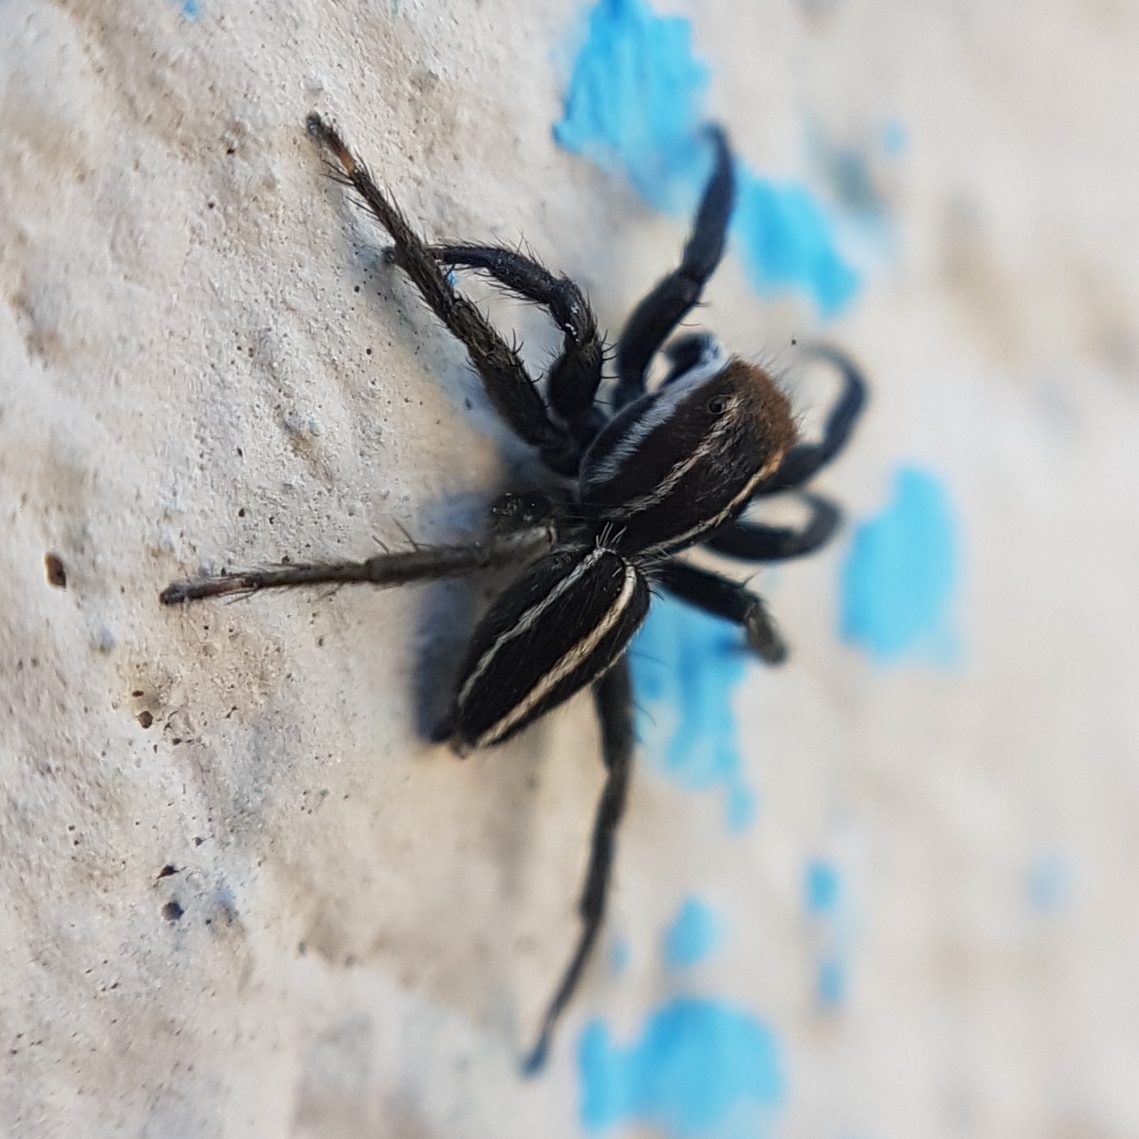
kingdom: Animalia
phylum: Arthropoda
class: Arachnida
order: Araneae
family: Salticidae
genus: Phlegra
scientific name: Phlegra bresnieri
